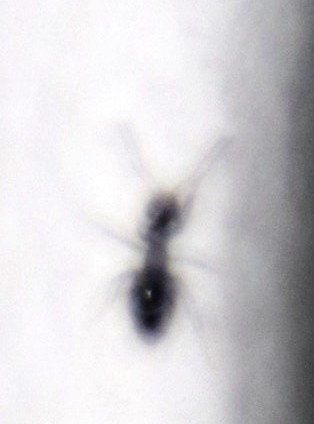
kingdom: Animalia
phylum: Arthropoda
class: Insecta
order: Hymenoptera
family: Formicidae
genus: Lepisiota
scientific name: Lepisiota capensis
